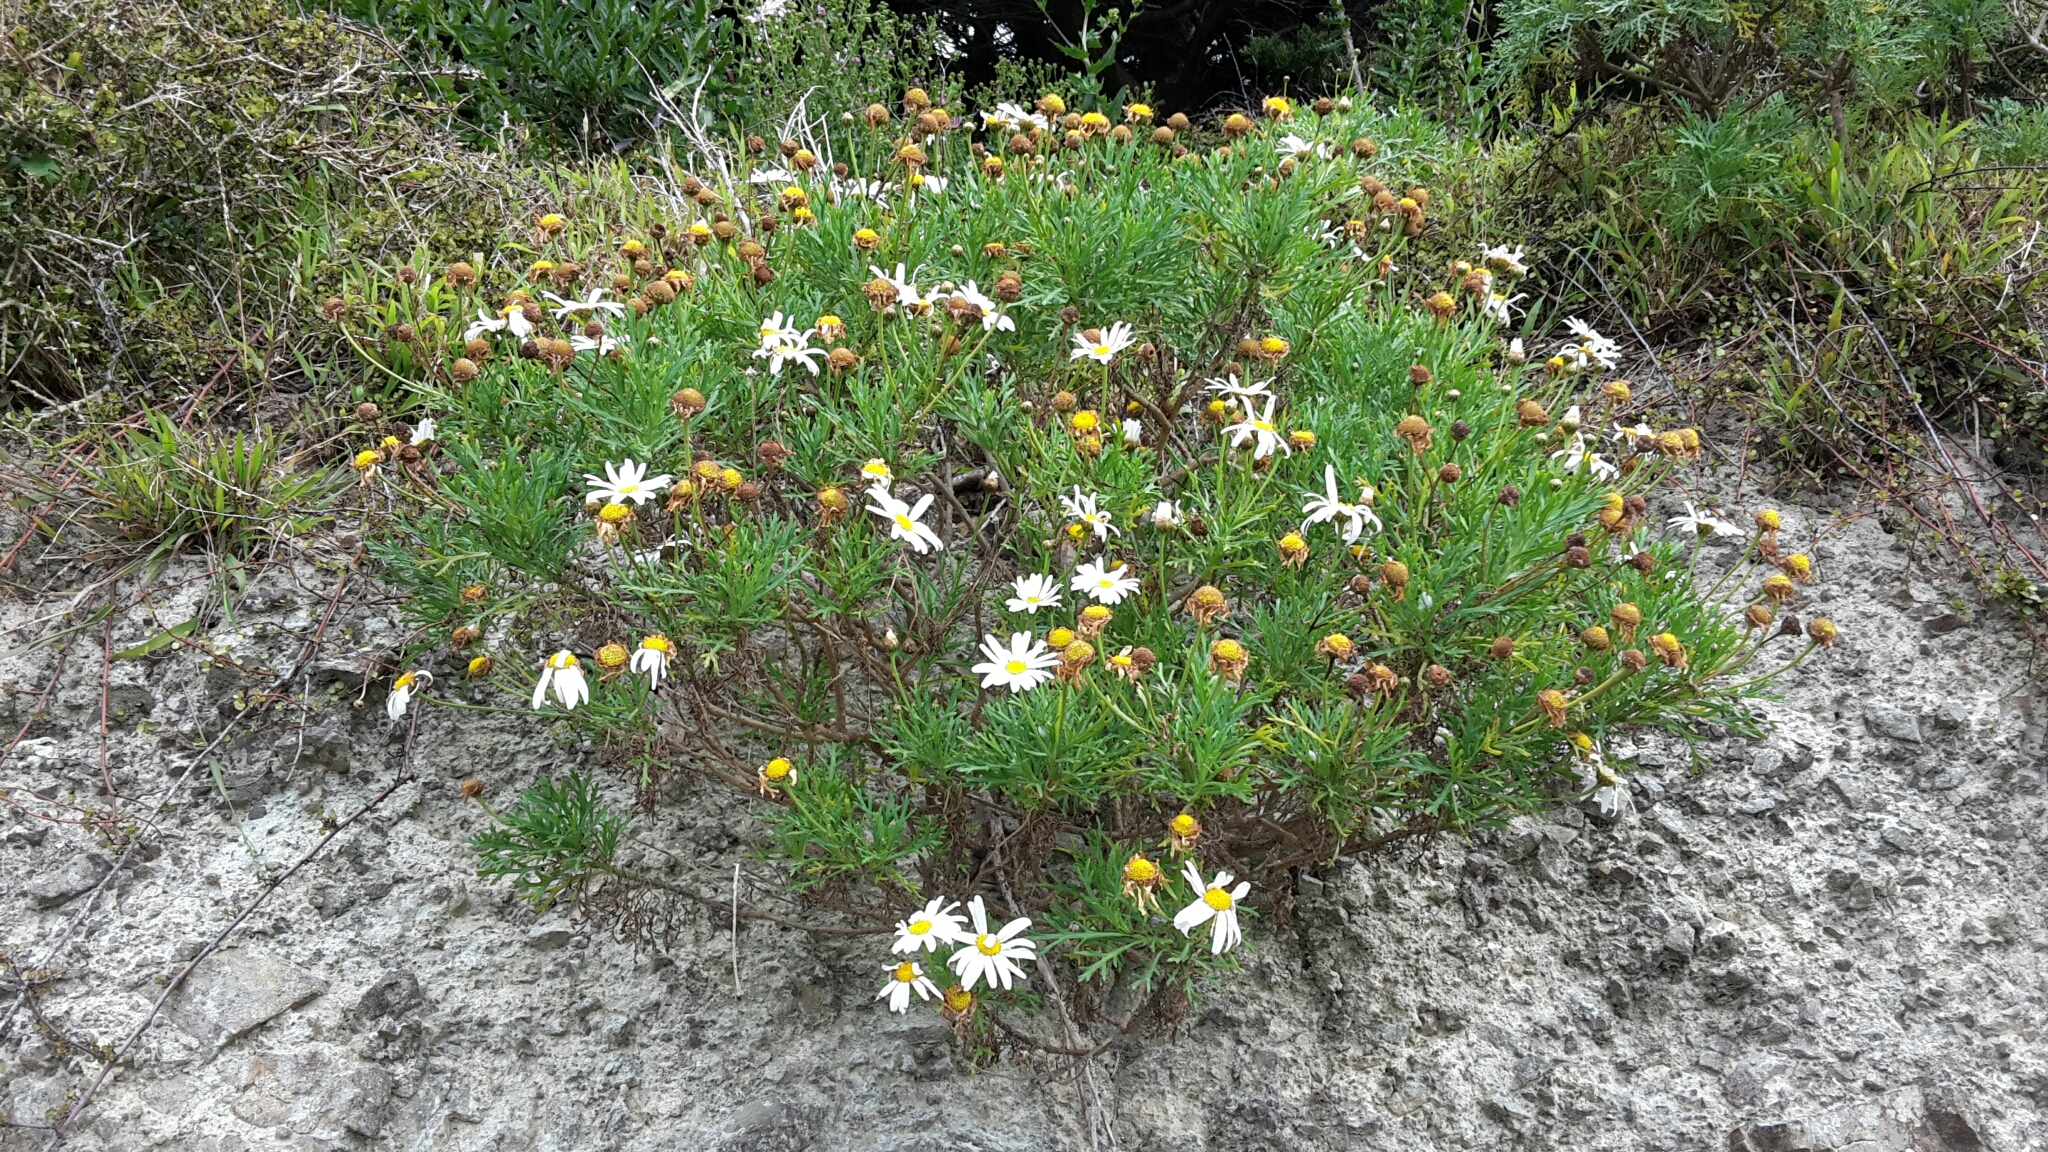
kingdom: Plantae
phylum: Tracheophyta
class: Magnoliopsida
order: Asterales
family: Asteraceae
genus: Argyranthemum
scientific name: Argyranthemum frutescens
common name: Paris daisy
